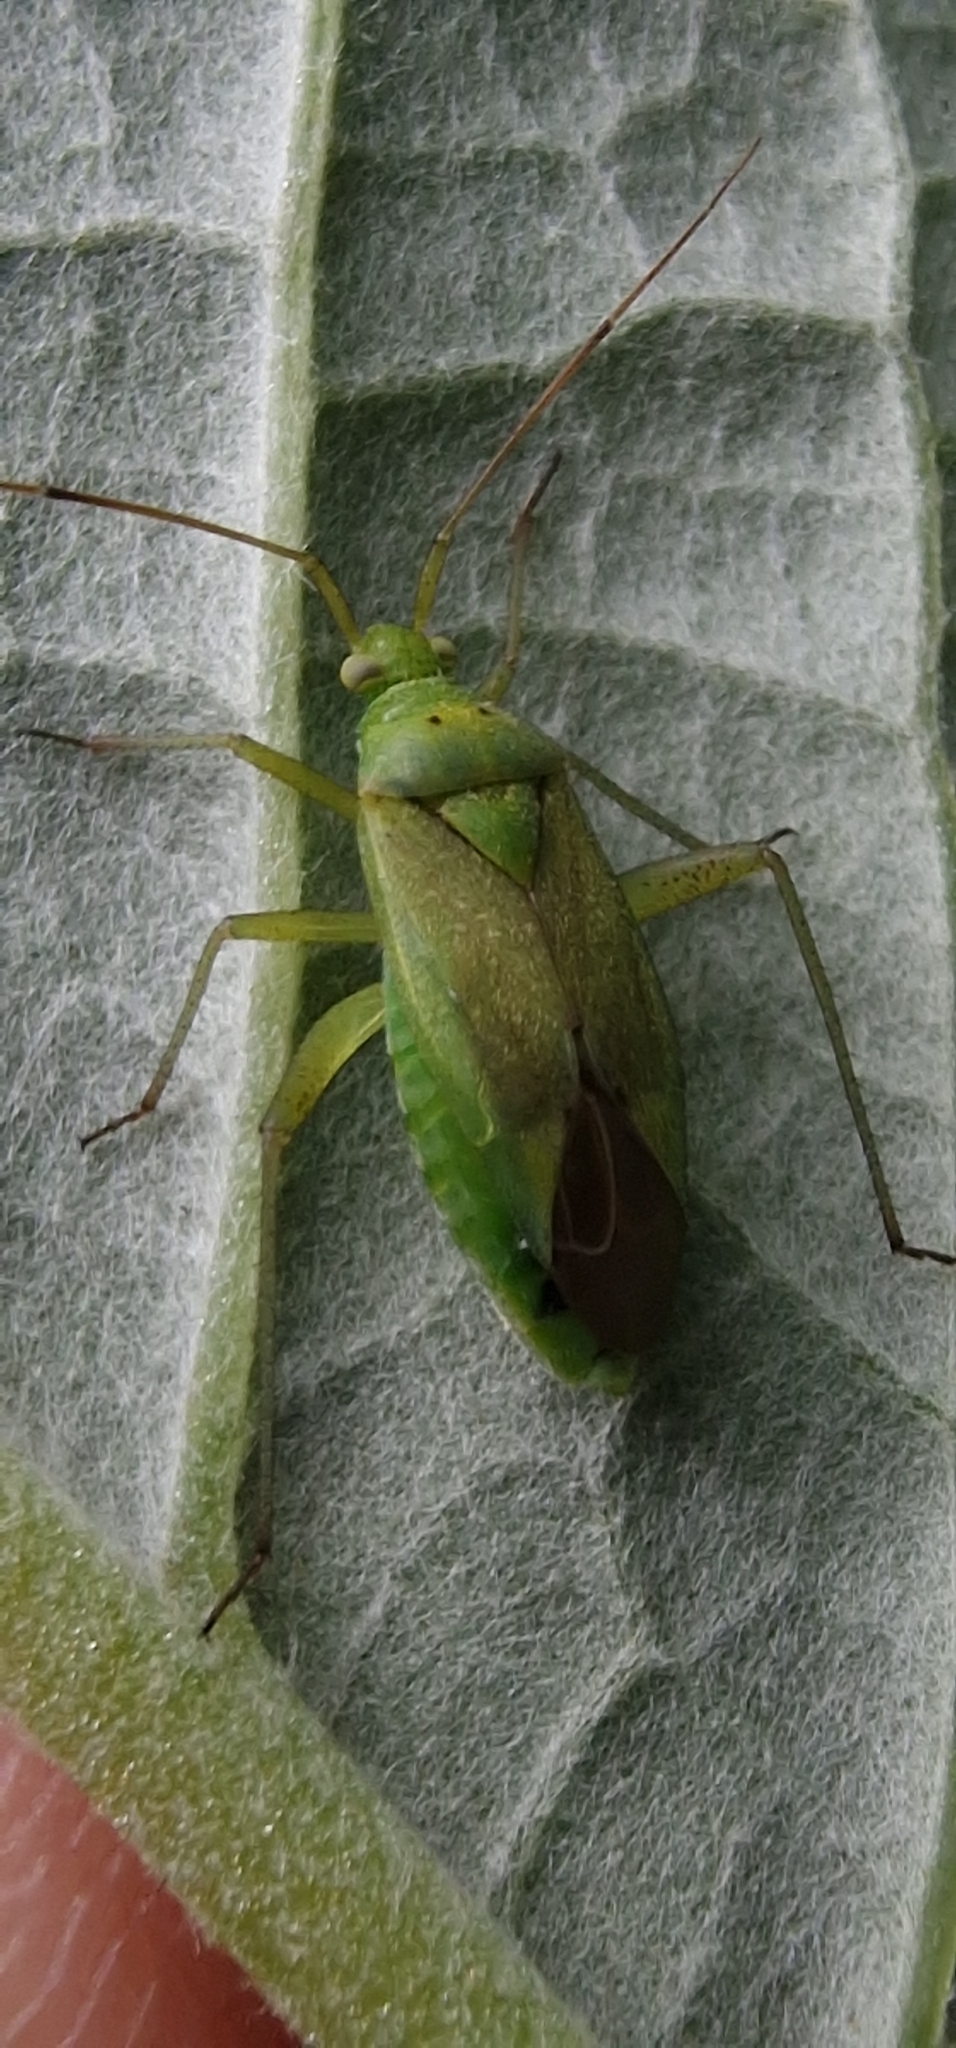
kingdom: Animalia
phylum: Arthropoda
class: Insecta
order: Hemiptera
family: Miridae
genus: Closterotomus
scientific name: Closterotomus norvegicus
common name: Plant bug
